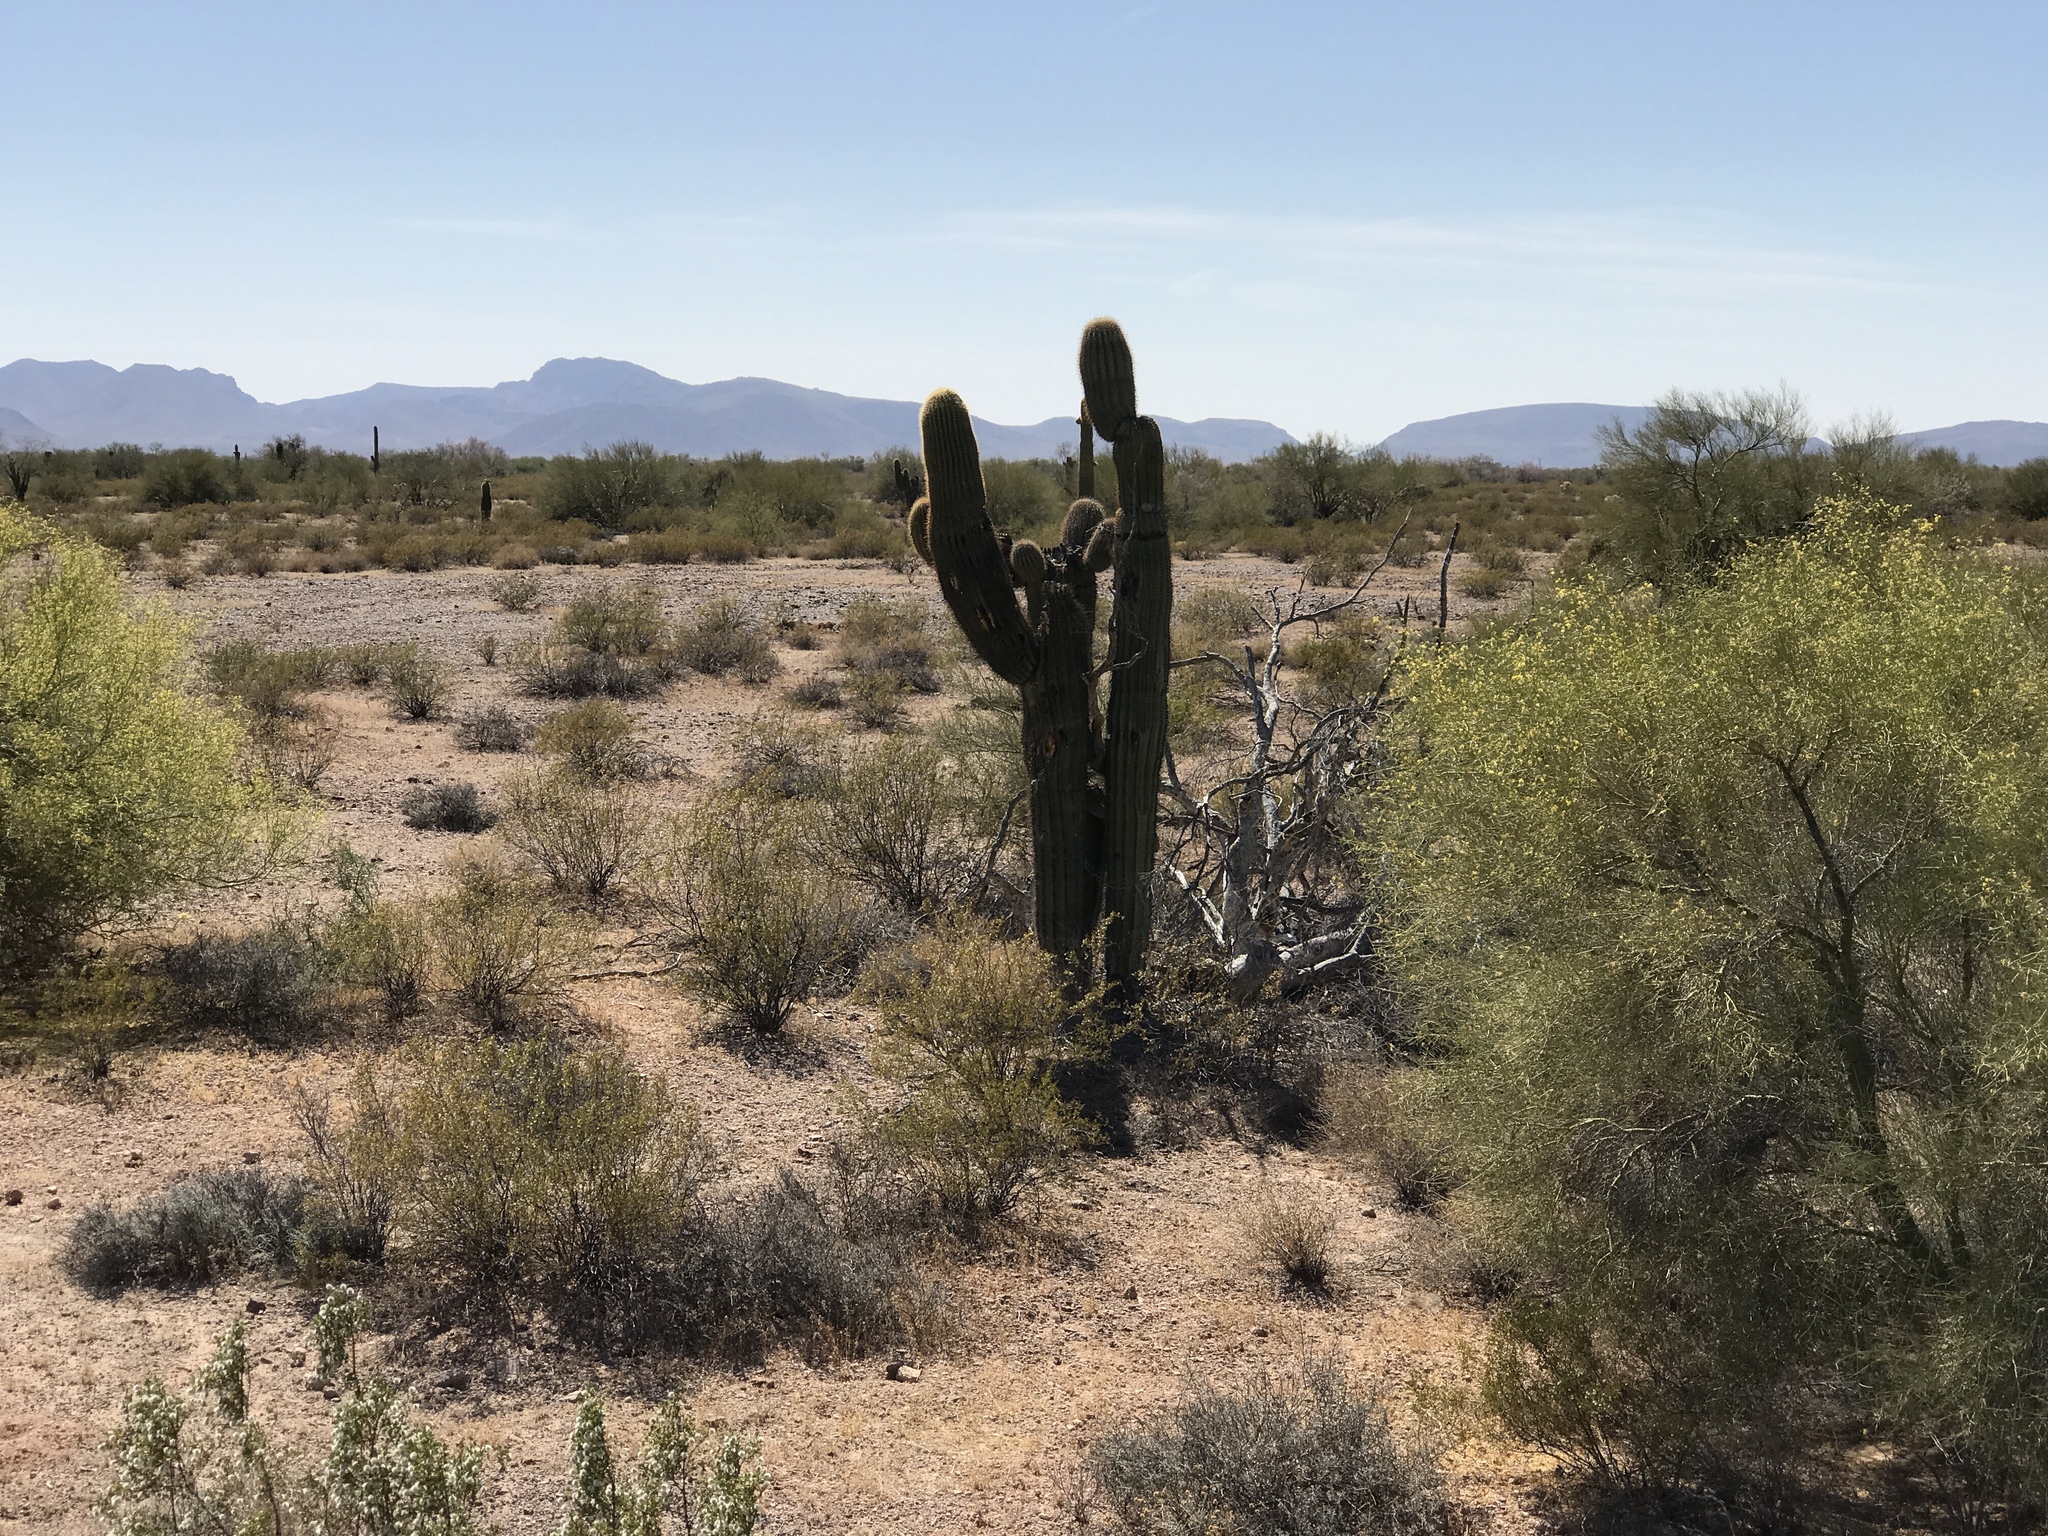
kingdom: Plantae
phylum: Tracheophyta
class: Magnoliopsida
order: Caryophyllales
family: Cactaceae
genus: Carnegiea
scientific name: Carnegiea gigantea
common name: Saguaro
